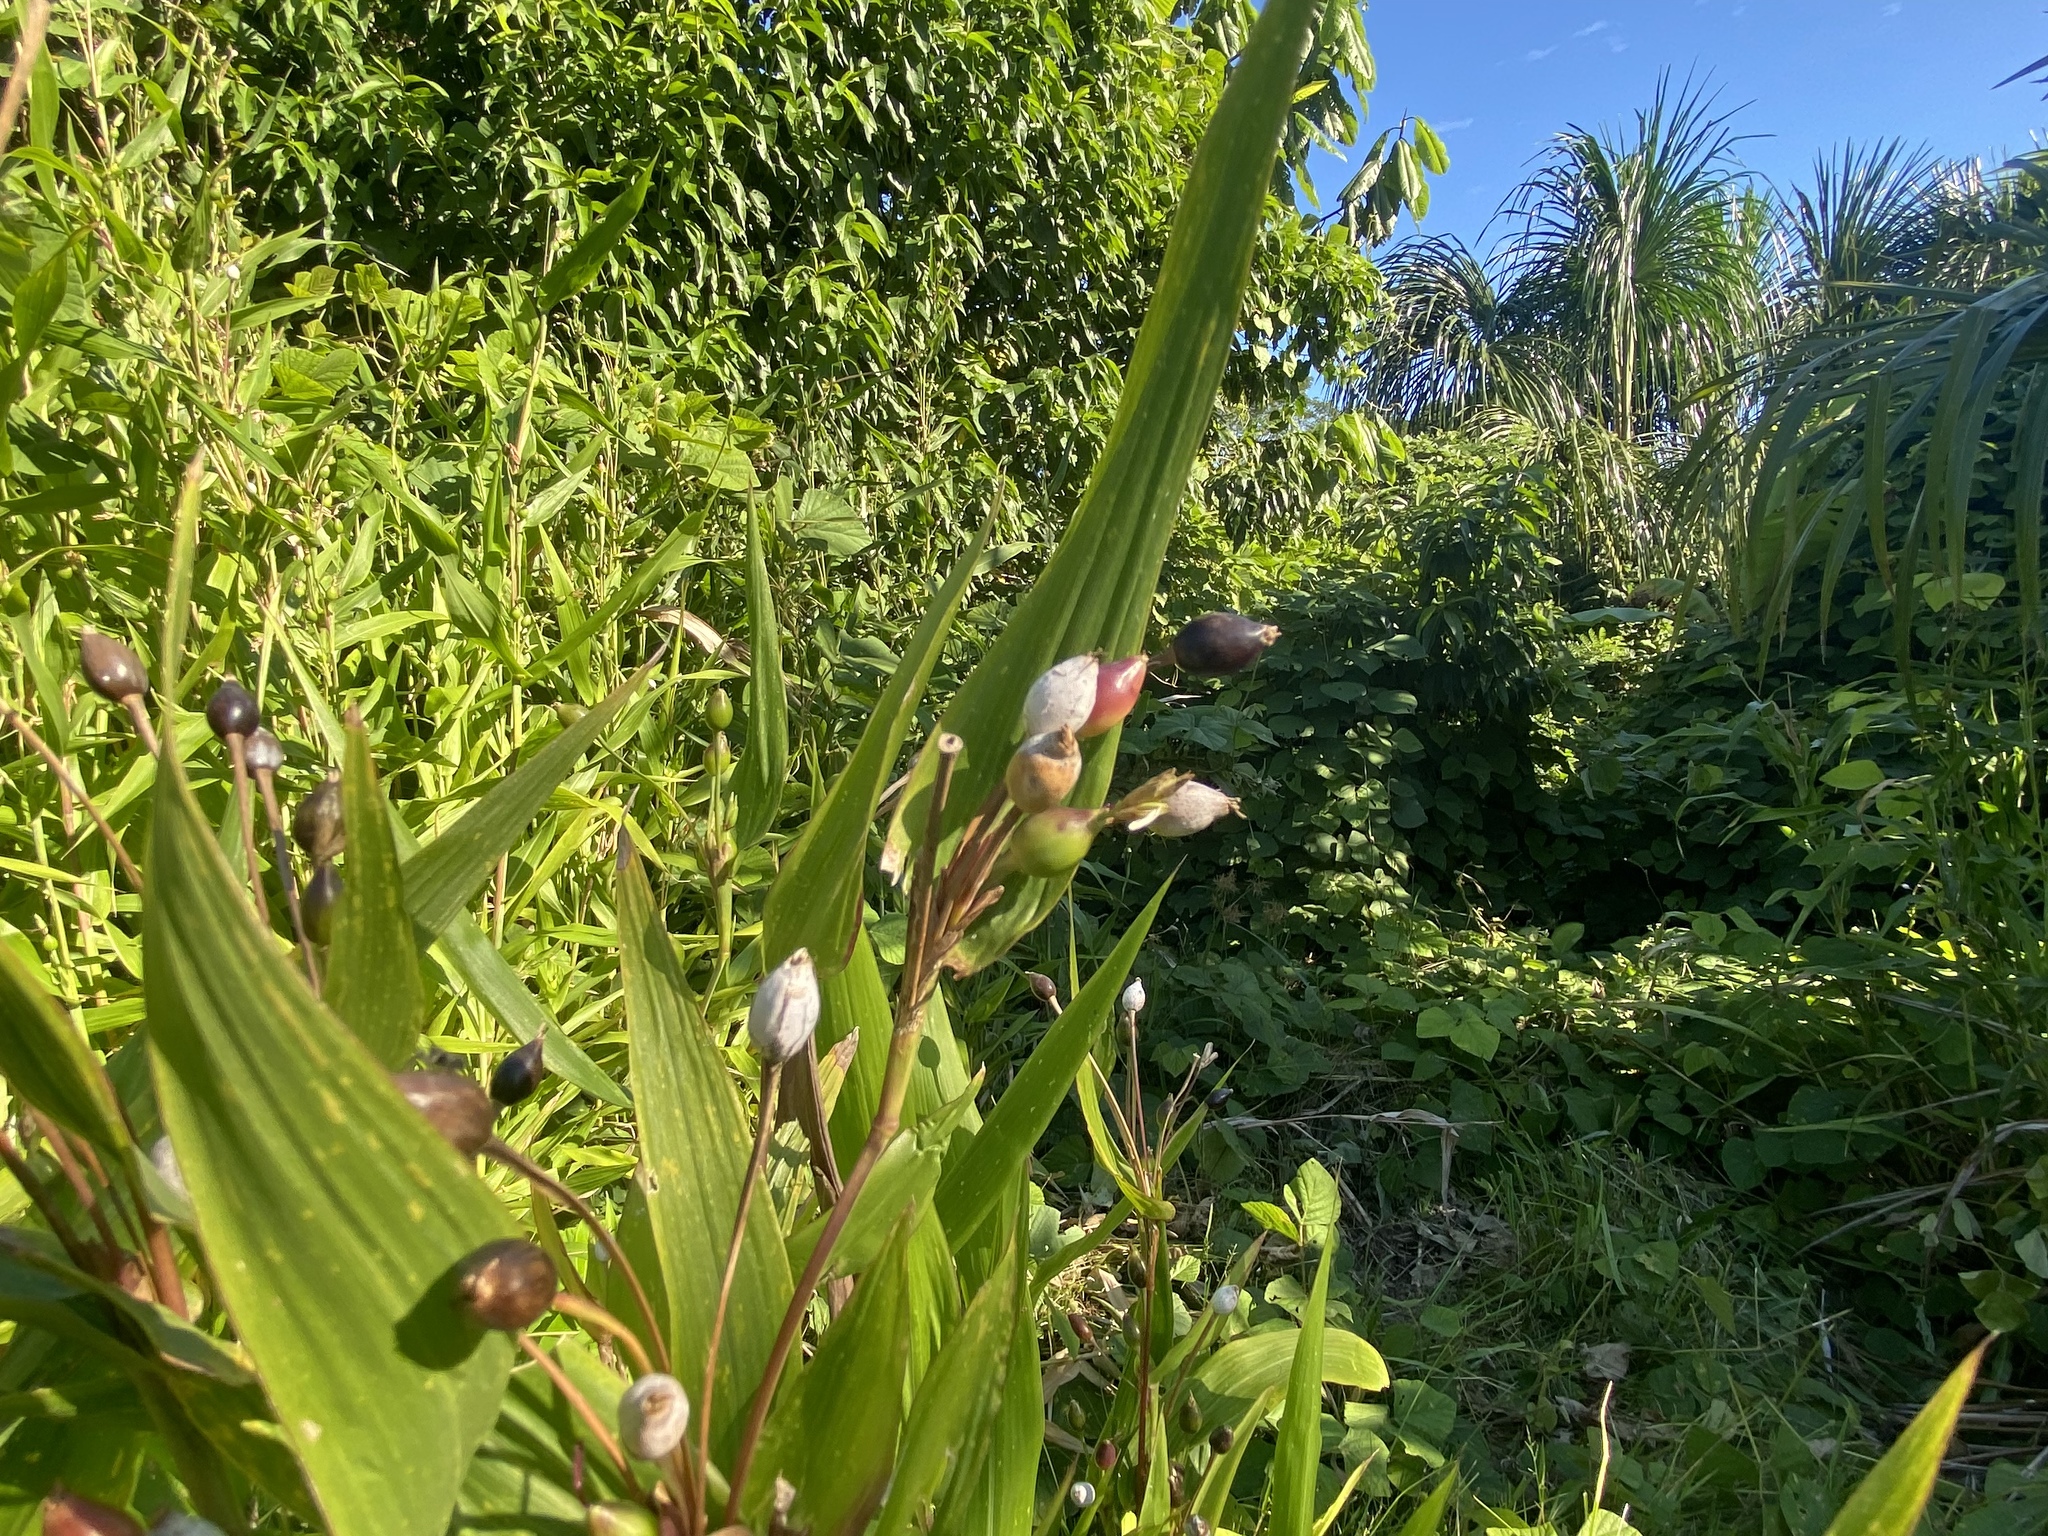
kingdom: Plantae
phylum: Tracheophyta
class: Liliopsida
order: Poales
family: Poaceae
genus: Coix
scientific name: Coix lacryma-jobi
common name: Job's tears
